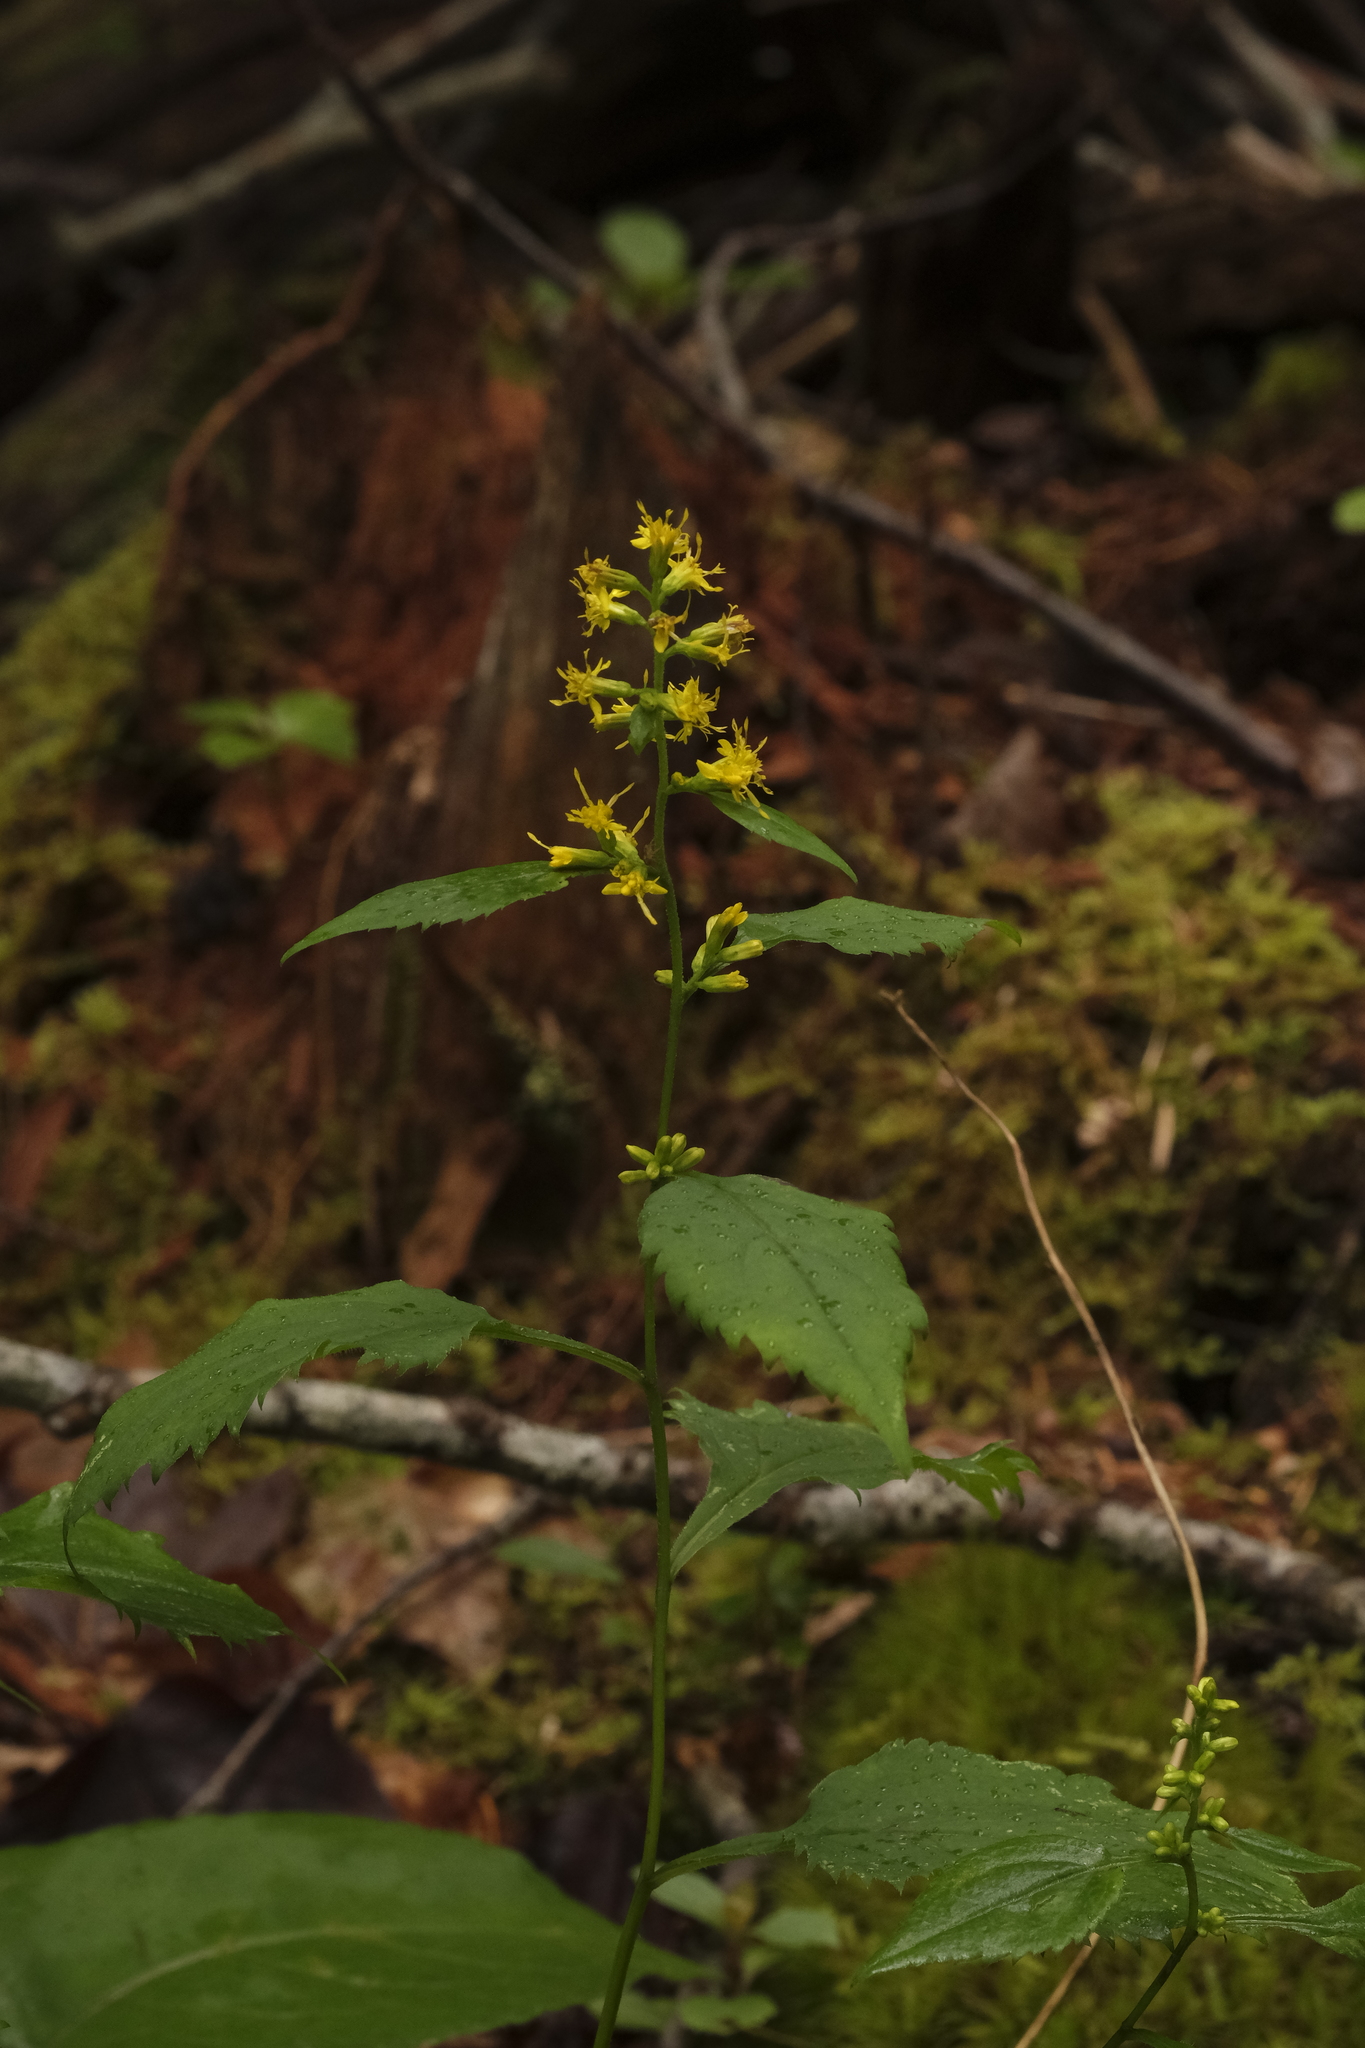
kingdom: Plantae
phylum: Tracheophyta
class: Magnoliopsida
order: Asterales
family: Asteraceae
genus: Solidago
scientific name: Solidago flexicaulis
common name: Zig-zag goldenrod
